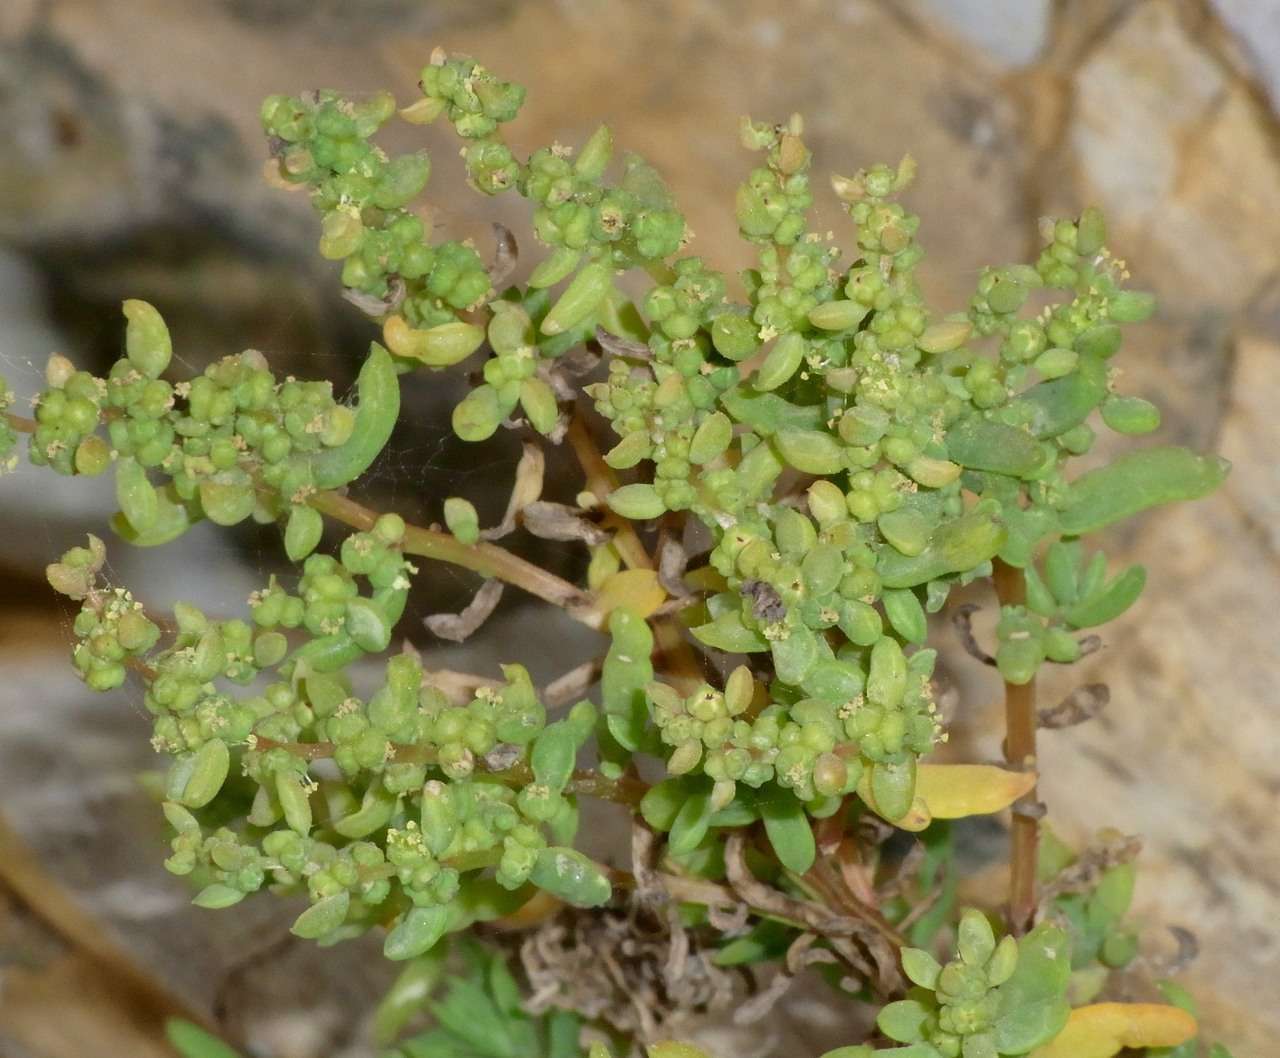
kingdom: Plantae
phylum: Tracheophyta
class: Magnoliopsida
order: Caryophyllales
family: Amaranthaceae
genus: Suaeda
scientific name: Suaeda australis
